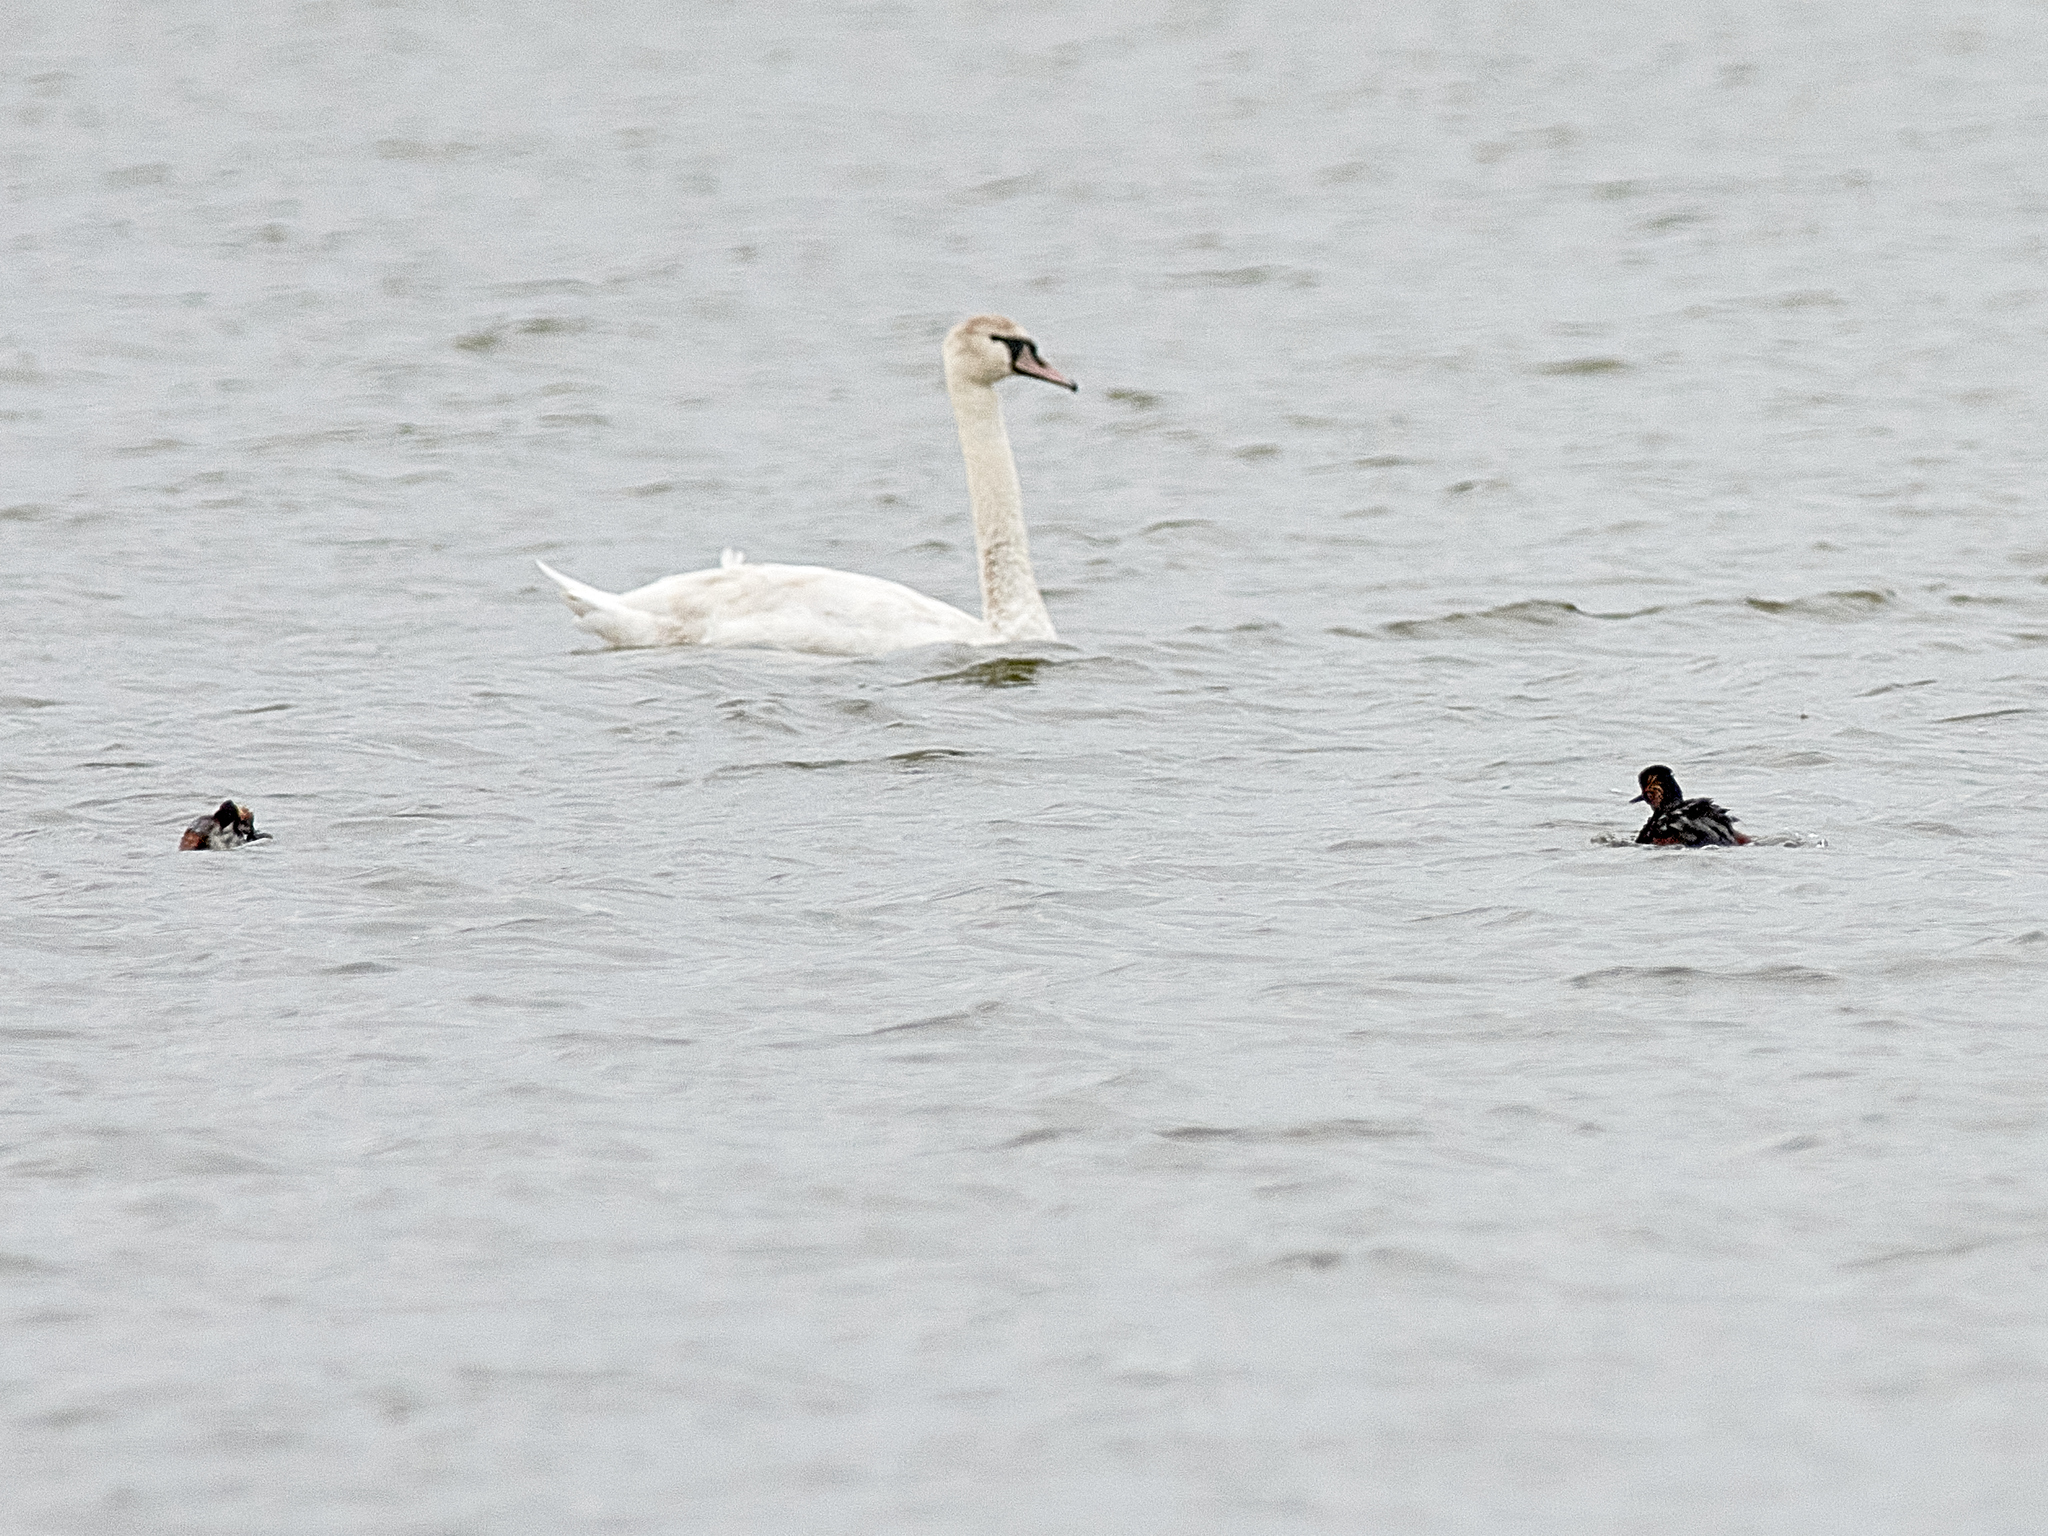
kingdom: Animalia
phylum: Chordata
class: Aves
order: Podicipediformes
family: Podicipedidae
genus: Podiceps
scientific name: Podiceps nigricollis
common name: Black-necked grebe
